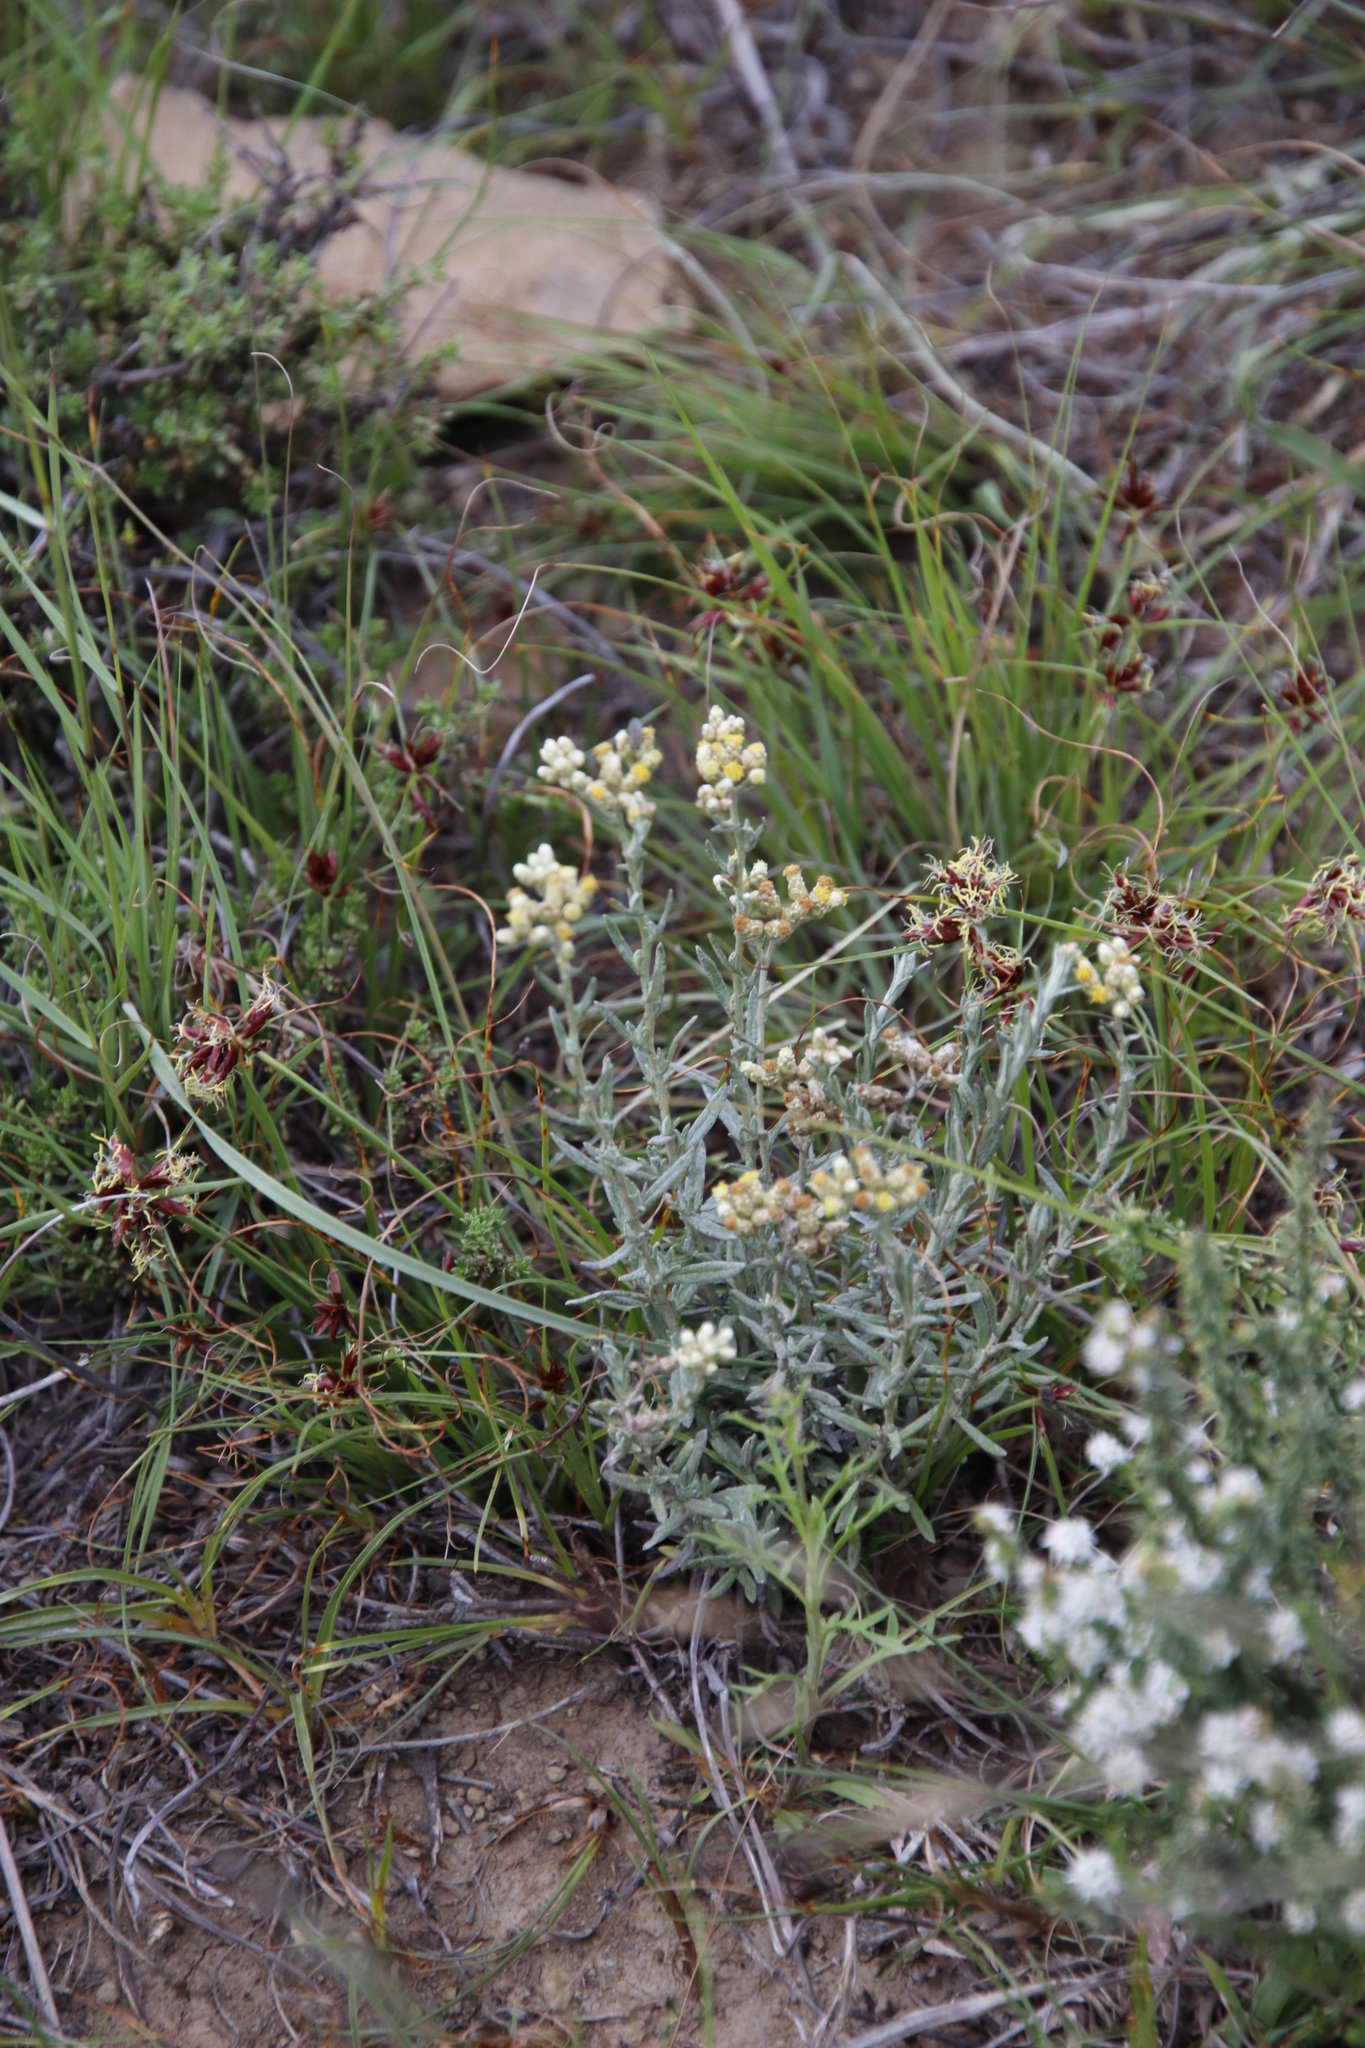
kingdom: Plantae
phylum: Tracheophyta
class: Magnoliopsida
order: Asterales
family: Asteraceae
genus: Helichrysum
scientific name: Helichrysum rosum
